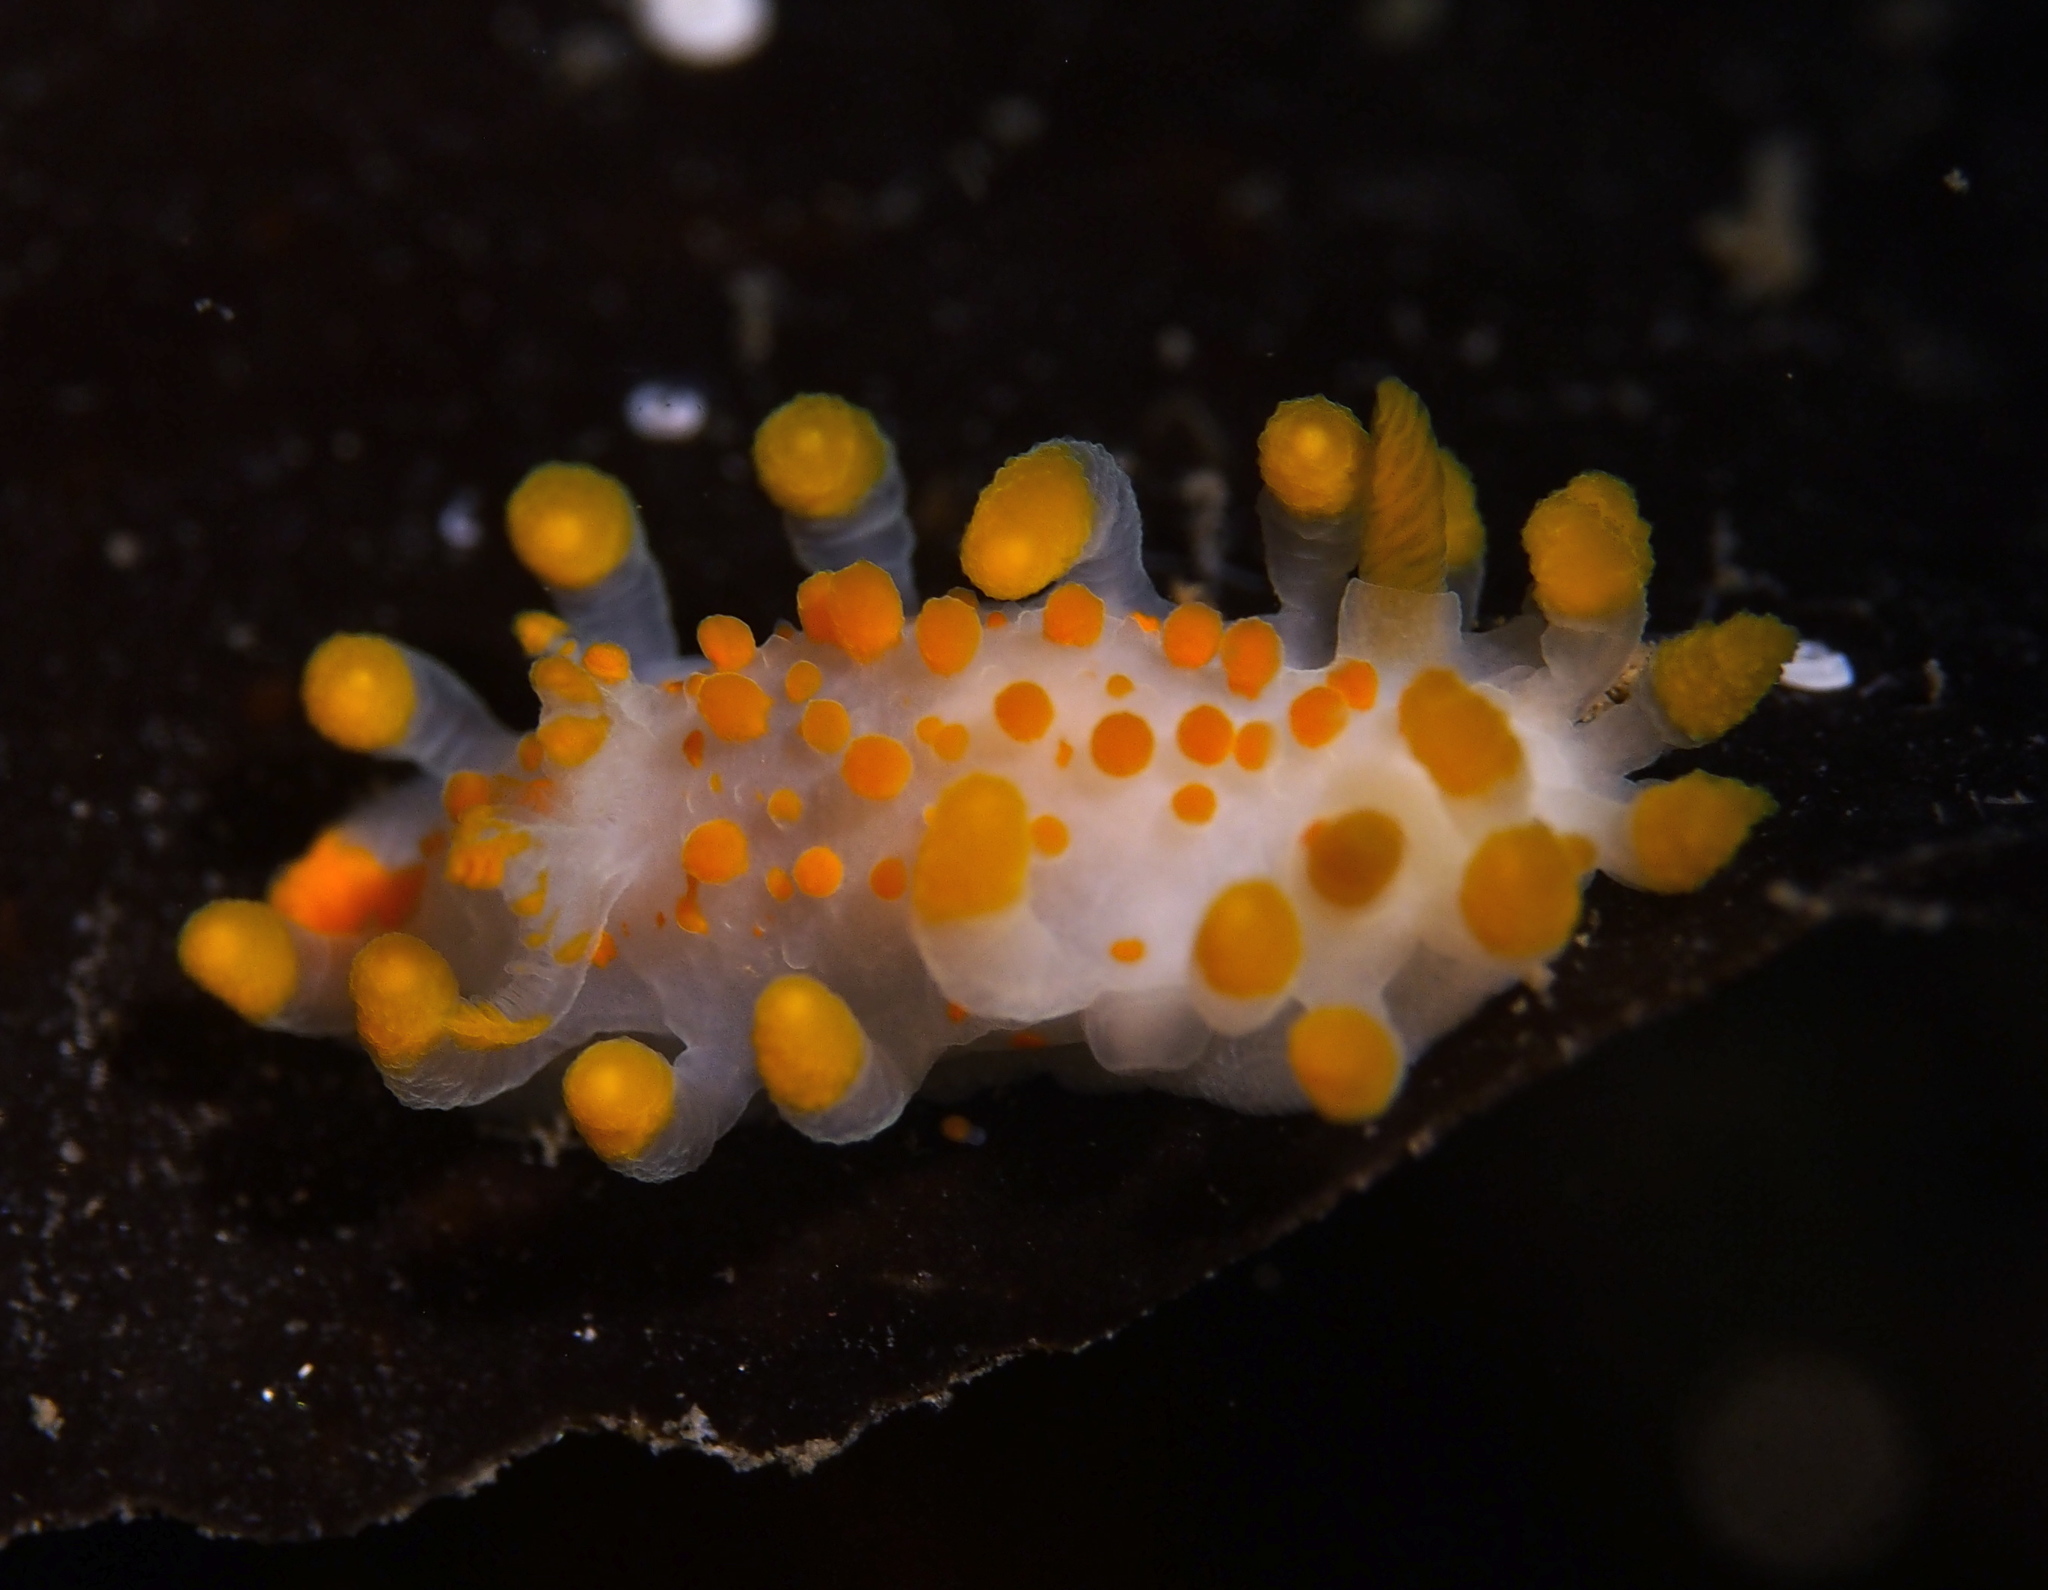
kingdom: Animalia
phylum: Mollusca
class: Gastropoda
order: Nudibranchia
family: Polyceridae
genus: Limacia
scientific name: Limacia clavigera
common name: Orange-clubbed sea slug
